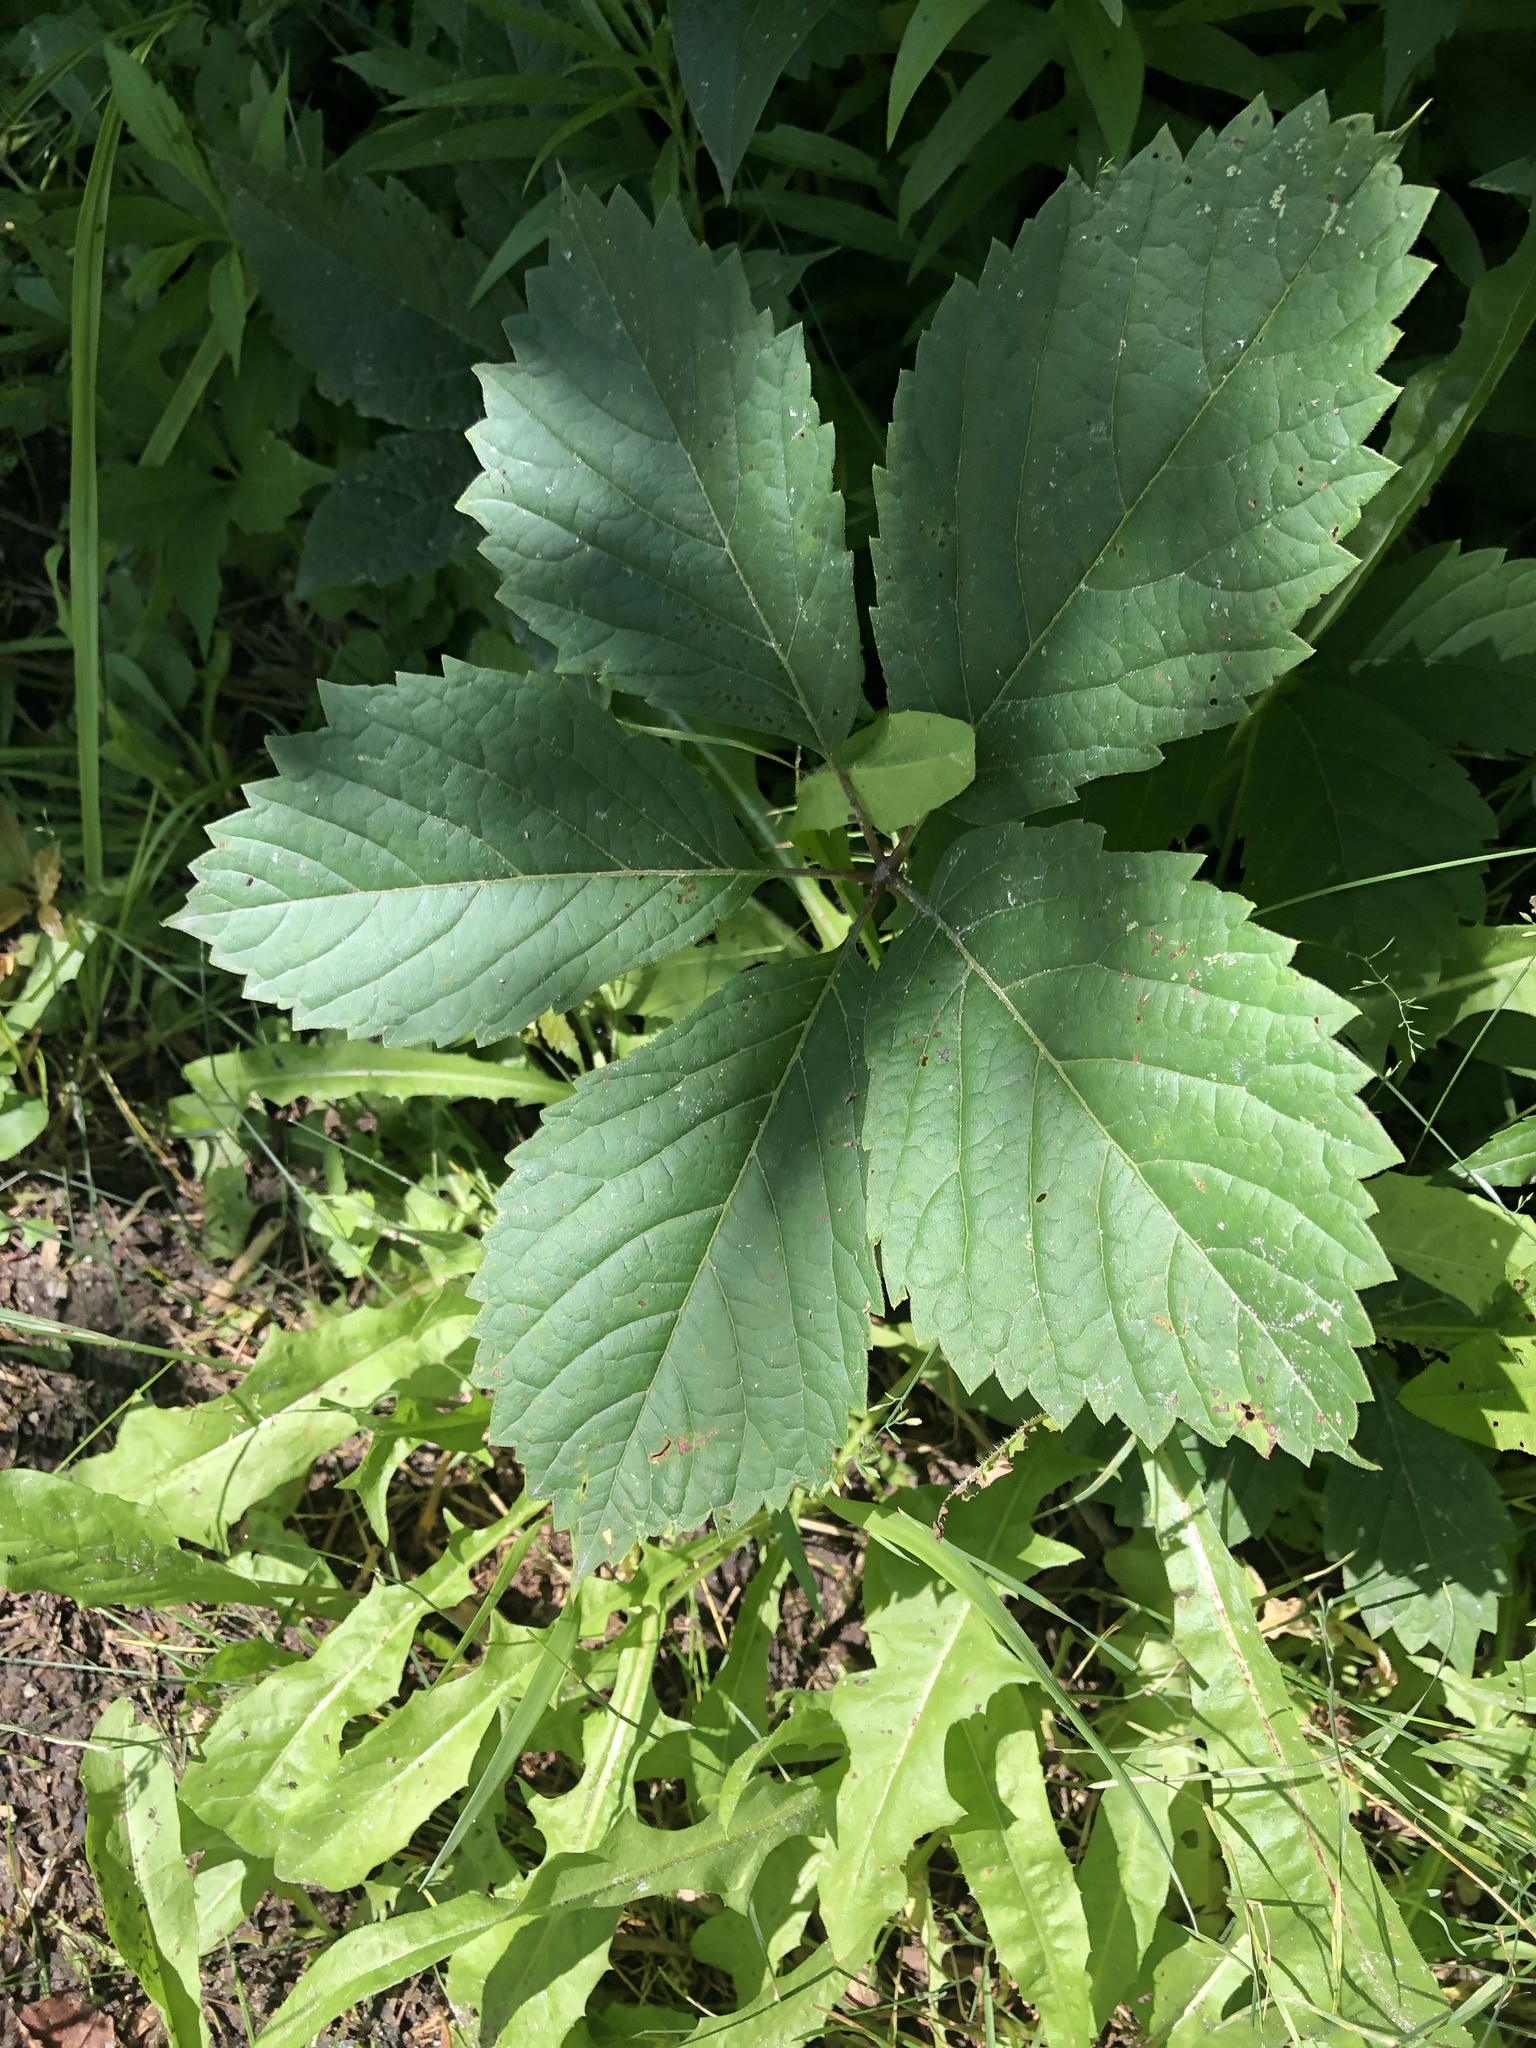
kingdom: Plantae
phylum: Tracheophyta
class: Magnoliopsida
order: Vitales
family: Vitaceae
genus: Parthenocissus
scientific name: Parthenocissus inserta
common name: False virginia-creeper
